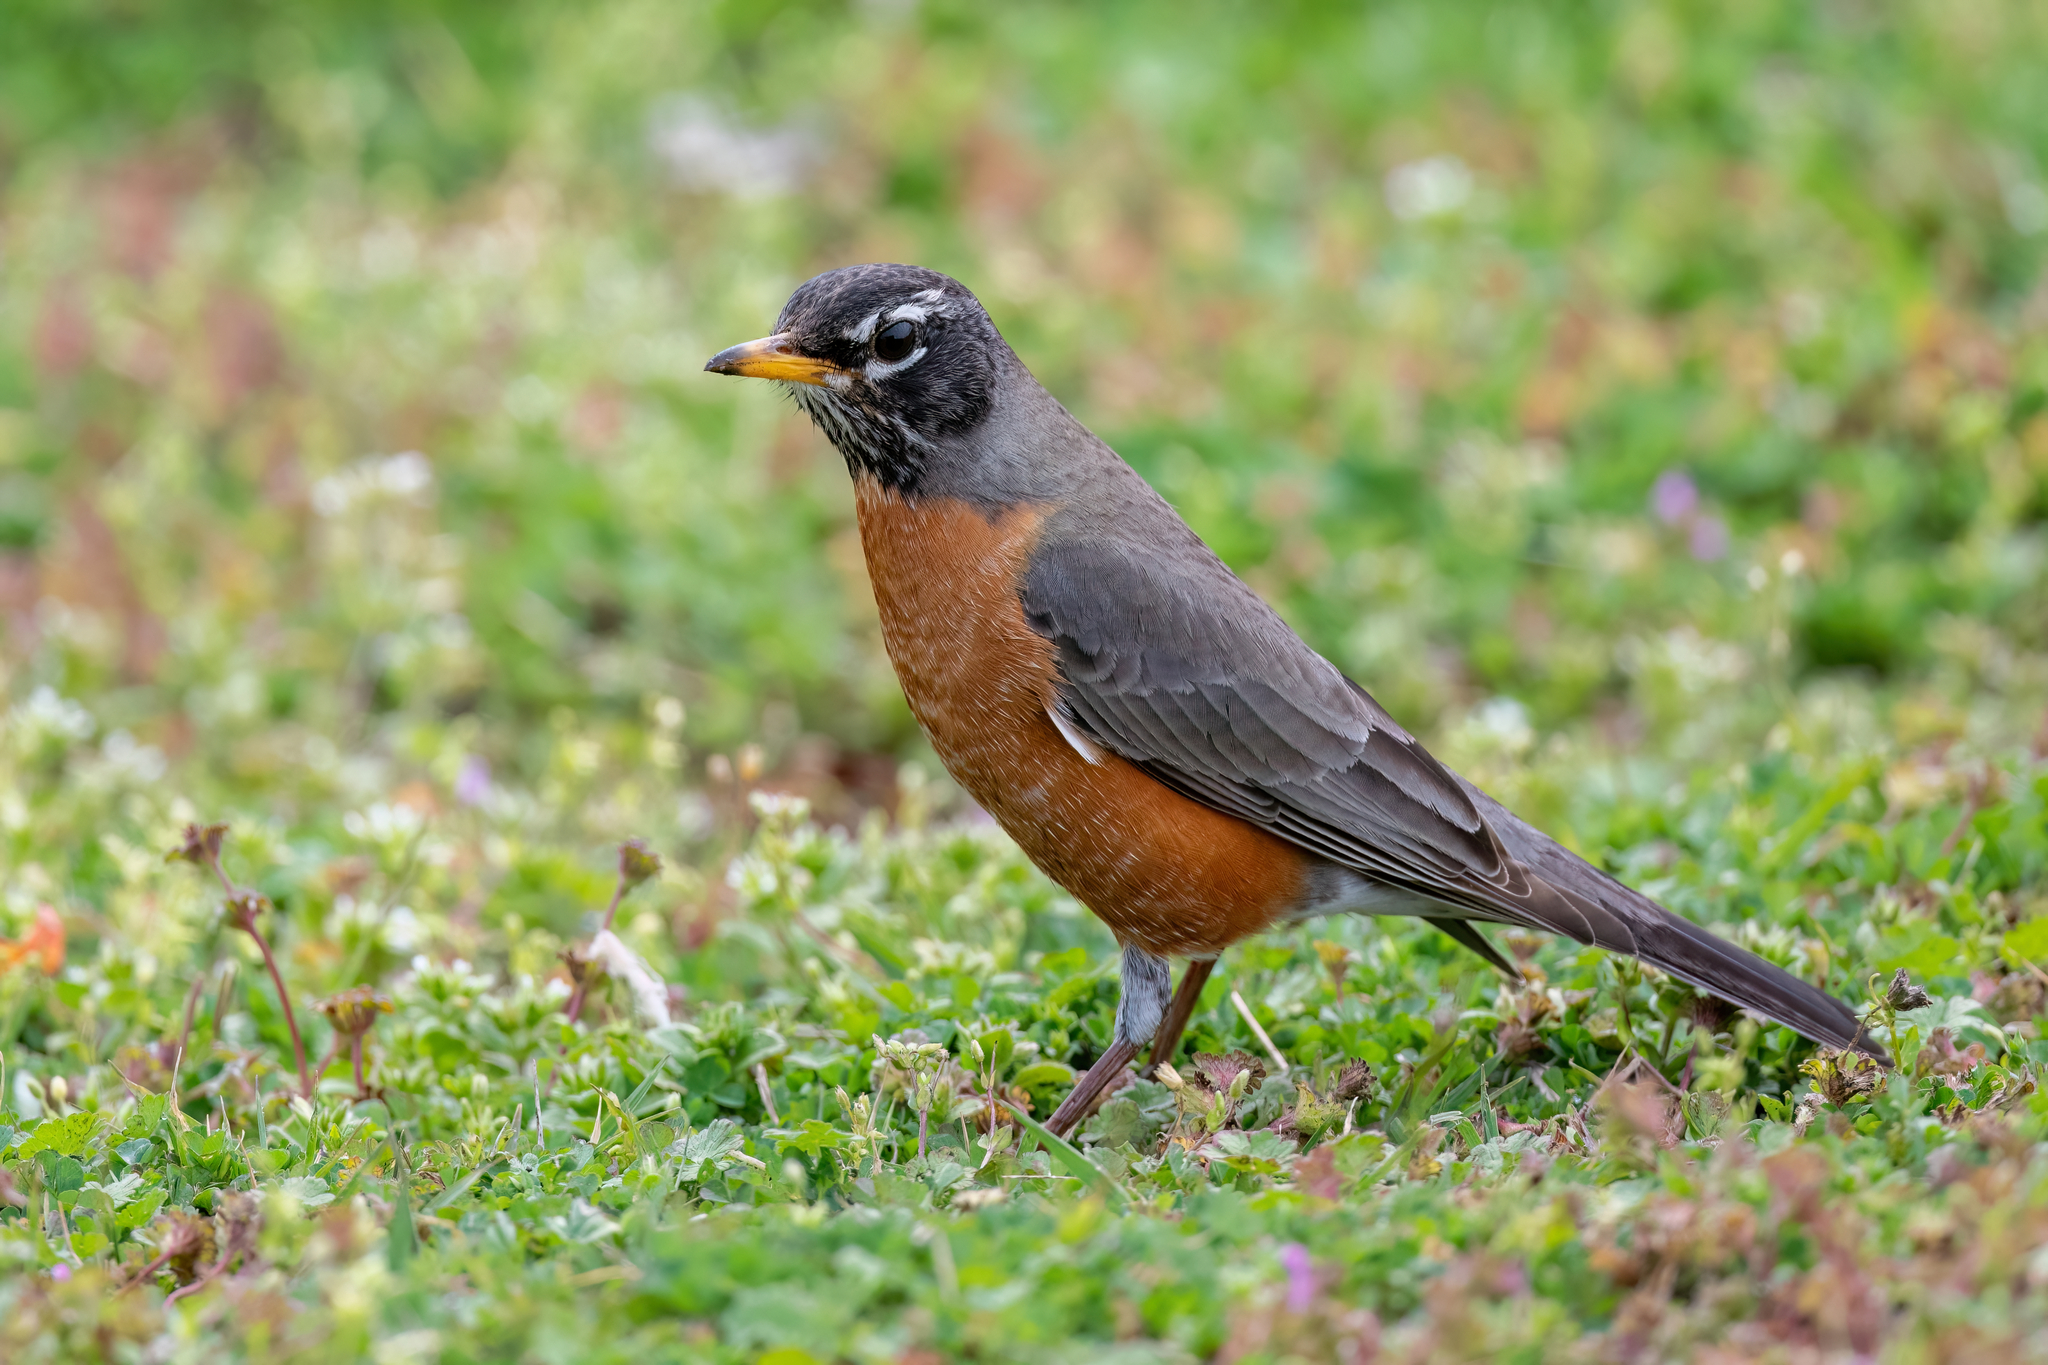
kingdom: Animalia
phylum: Chordata
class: Aves
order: Passeriformes
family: Turdidae
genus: Turdus
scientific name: Turdus migratorius
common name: American robin
